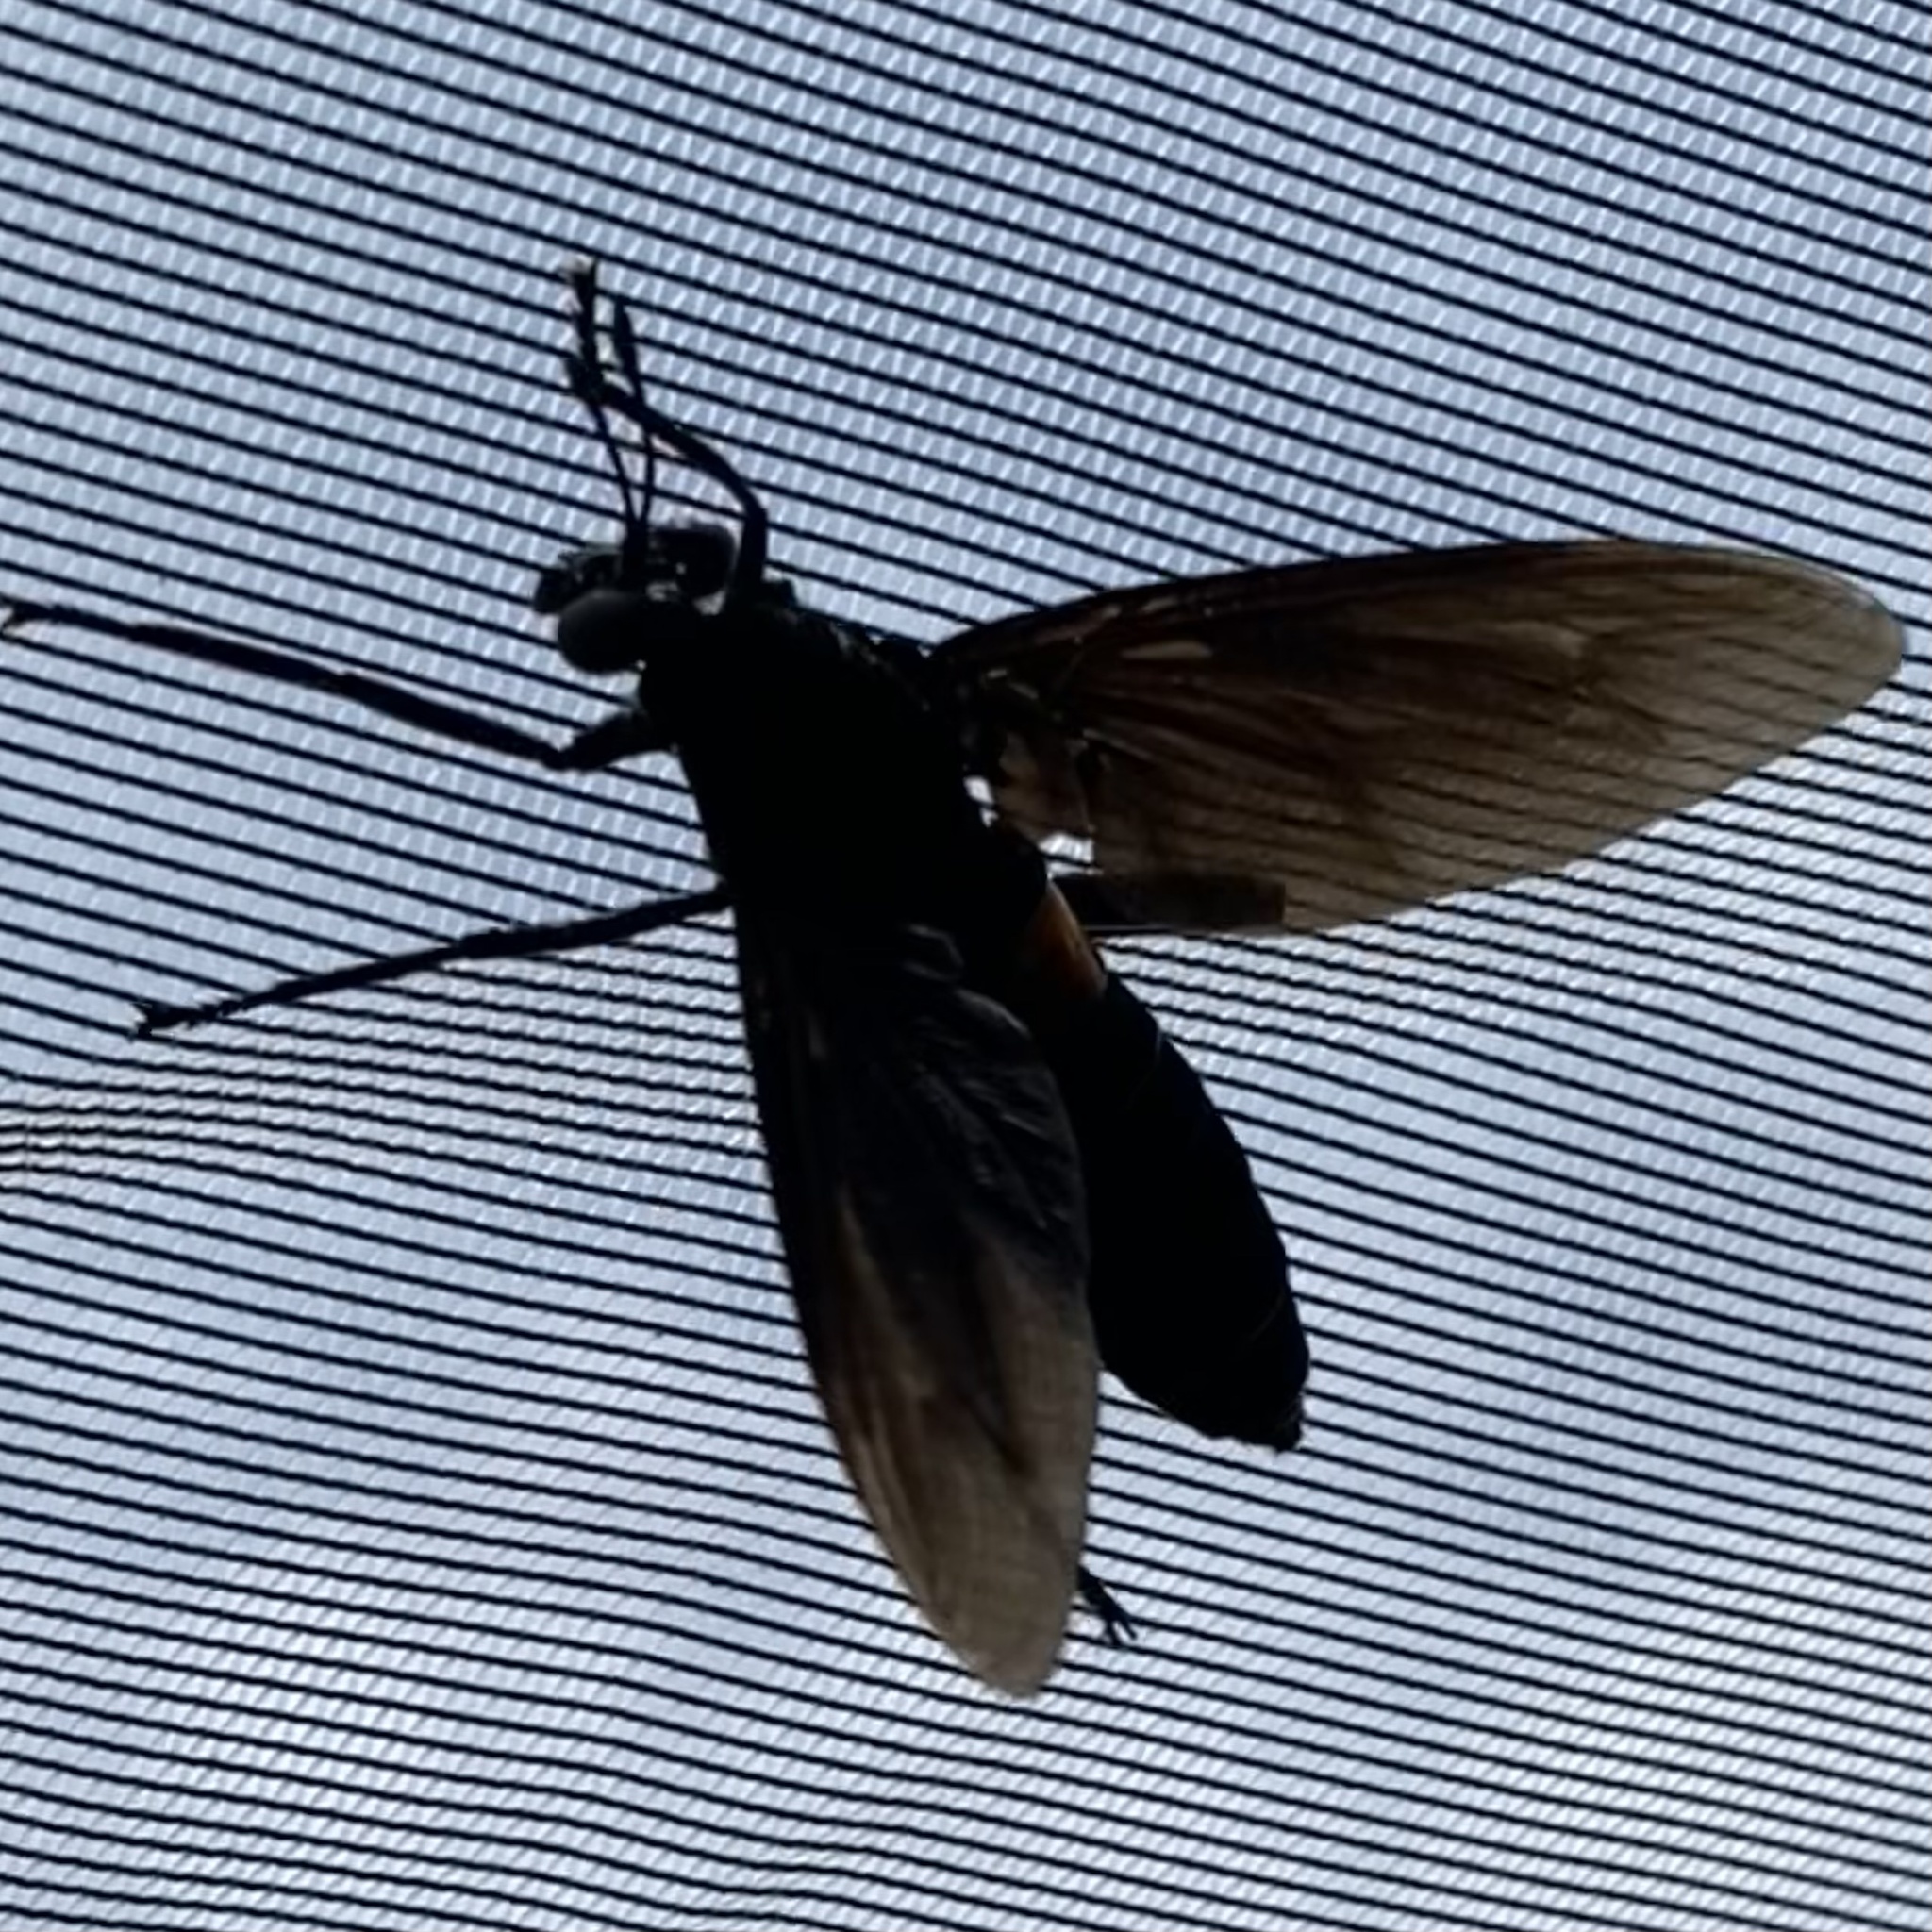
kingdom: Animalia
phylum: Arthropoda
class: Insecta
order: Diptera
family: Mydidae
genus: Mydas
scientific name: Mydas clavatus
